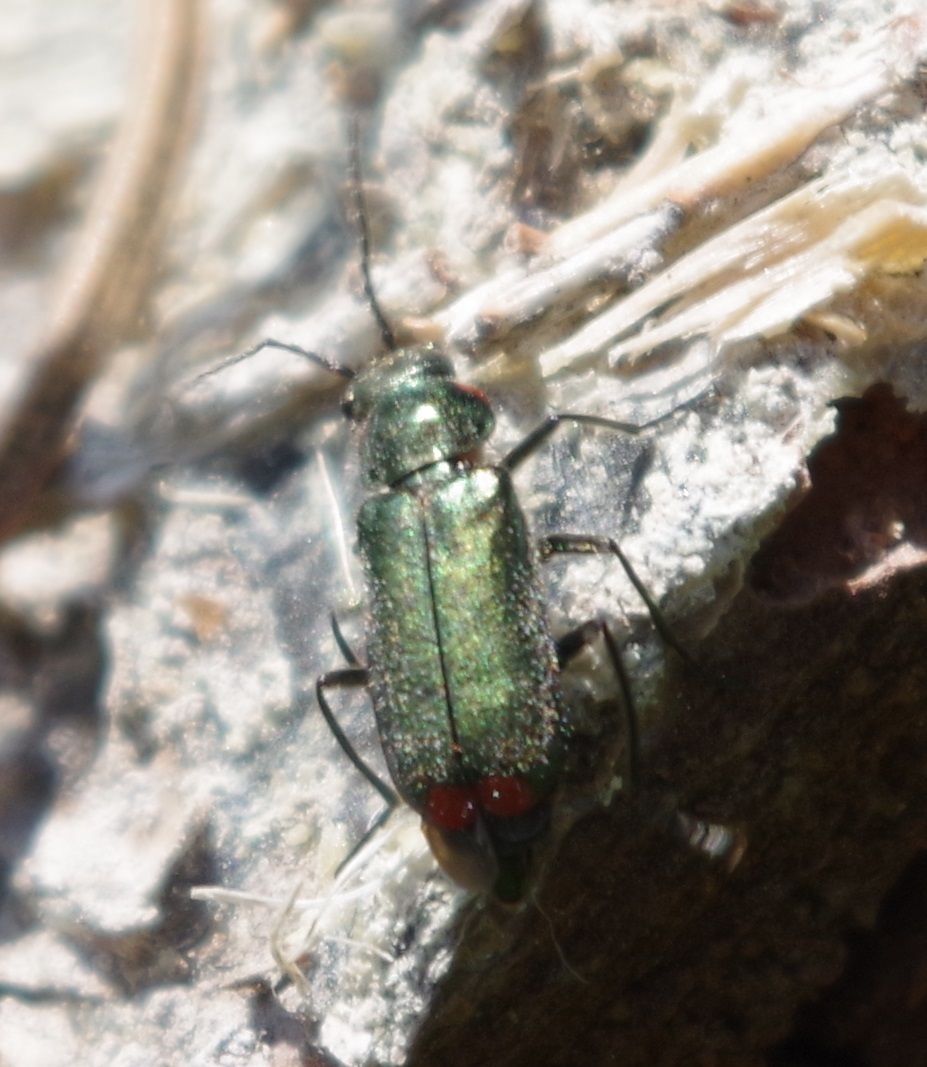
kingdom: Animalia
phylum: Arthropoda
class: Insecta
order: Coleoptera
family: Melyridae
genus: Malachius
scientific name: Malachius bipustulatus
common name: Malachite beetle
